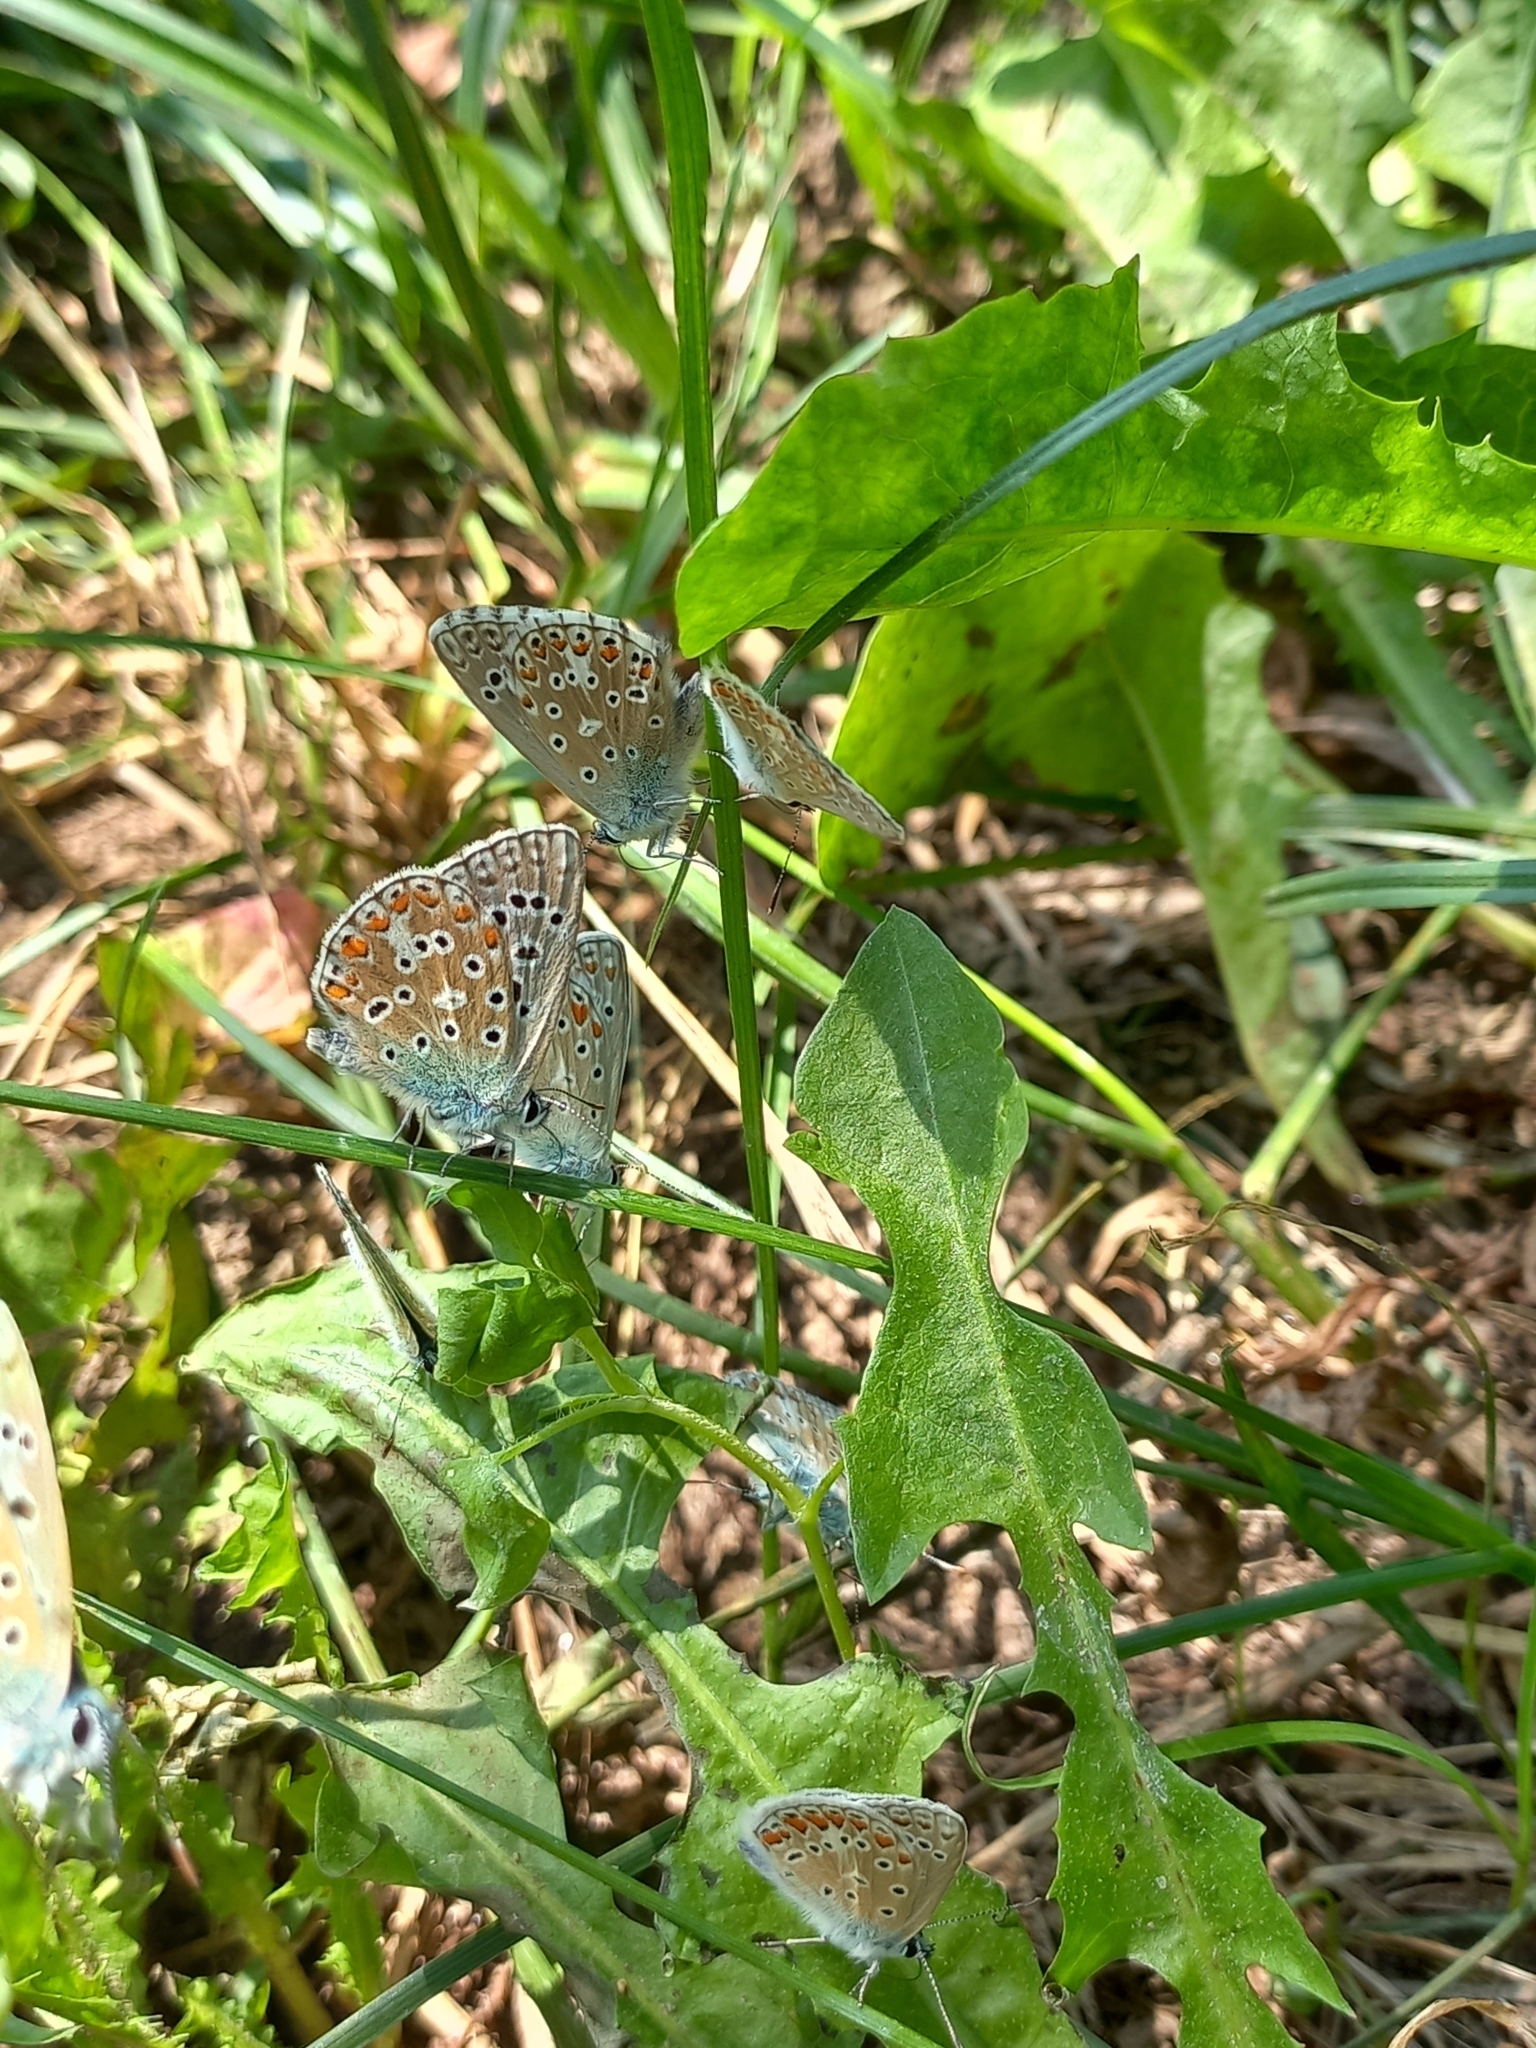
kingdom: Animalia
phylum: Arthropoda
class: Insecta
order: Lepidoptera
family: Lycaenidae
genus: Lysandra
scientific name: Lysandra bellargus
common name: Adonis blue
